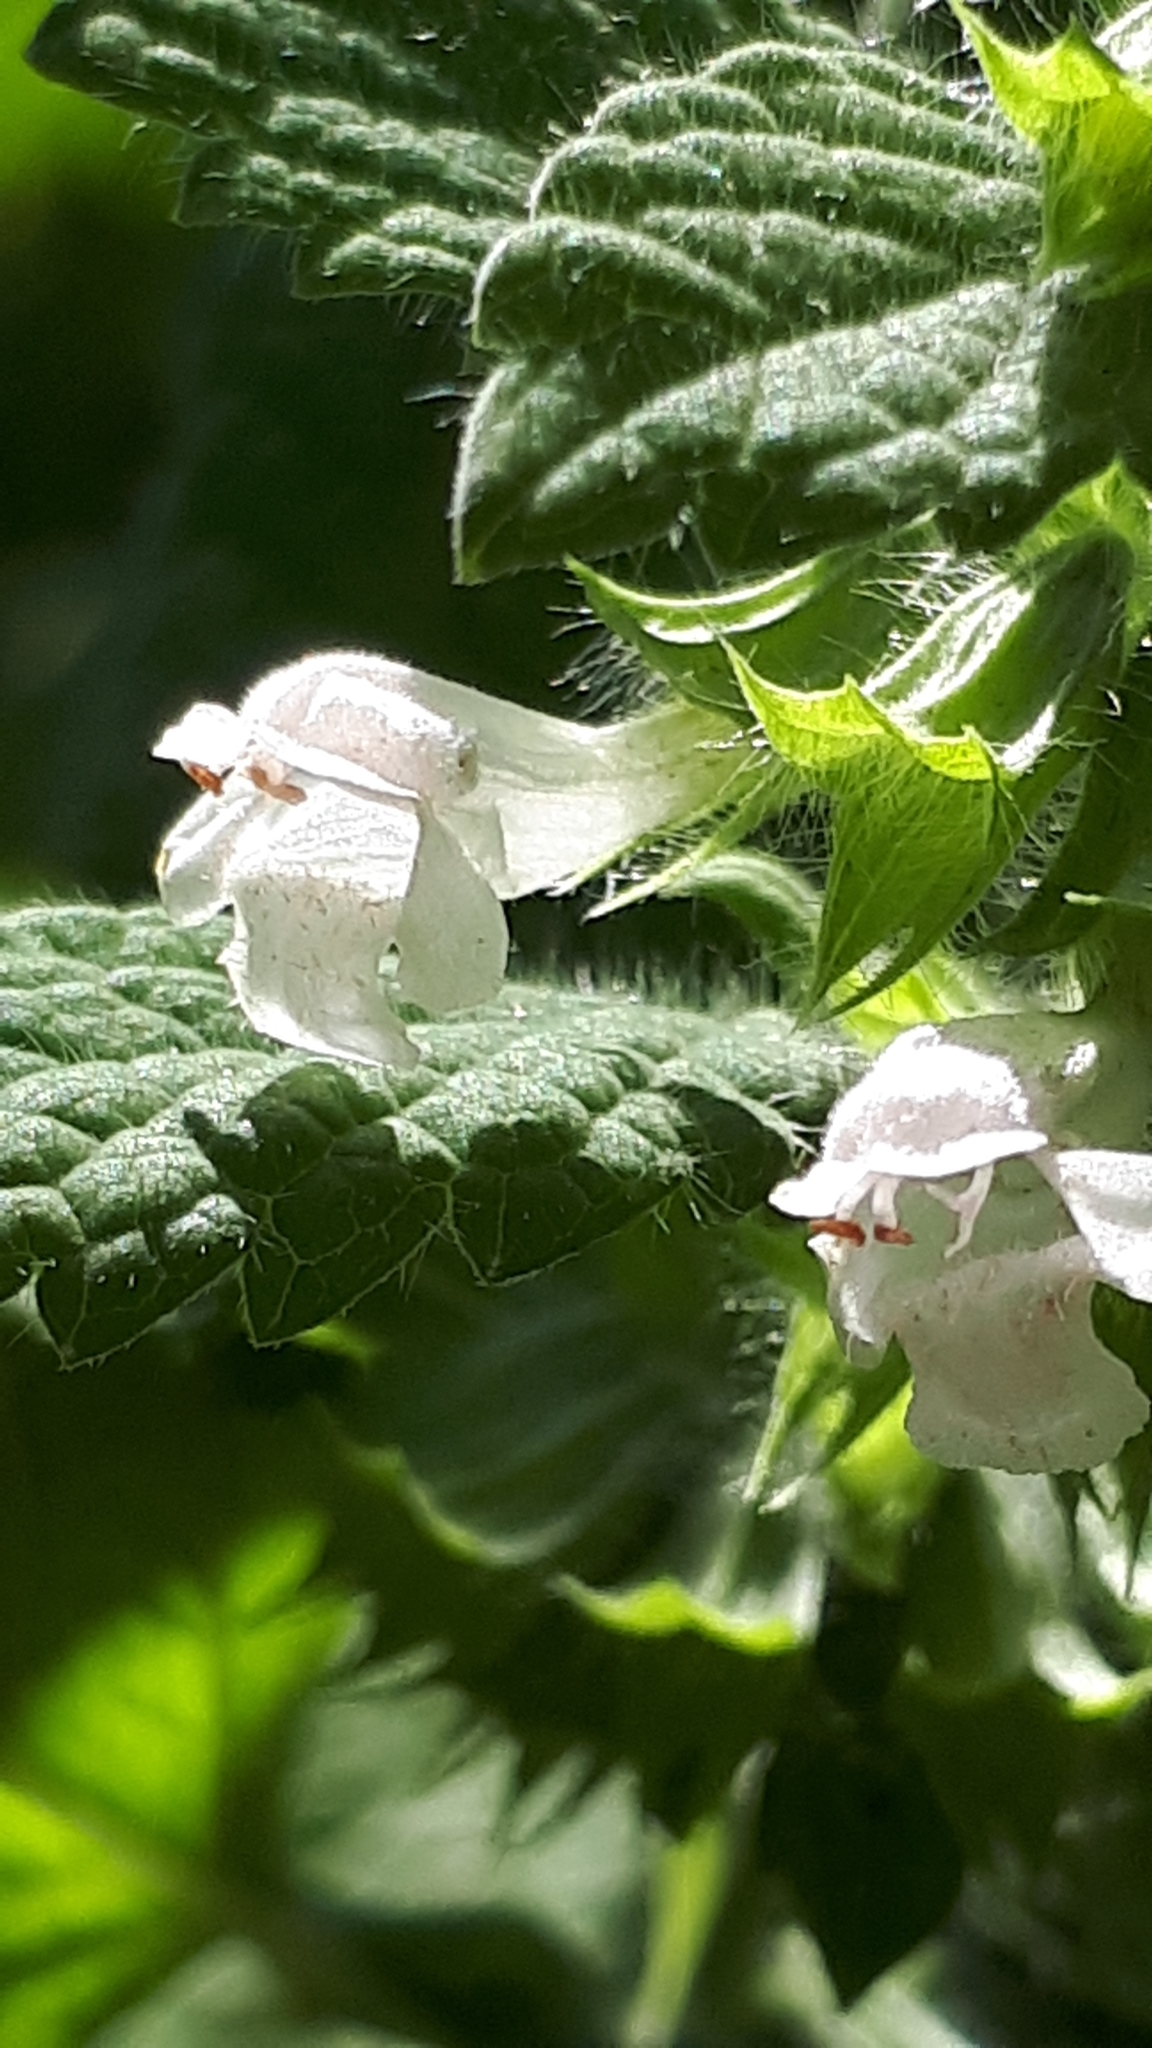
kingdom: Plantae
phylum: Tracheophyta
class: Magnoliopsida
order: Lamiales
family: Lamiaceae
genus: Melissa
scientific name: Melissa officinalis
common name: Balm
